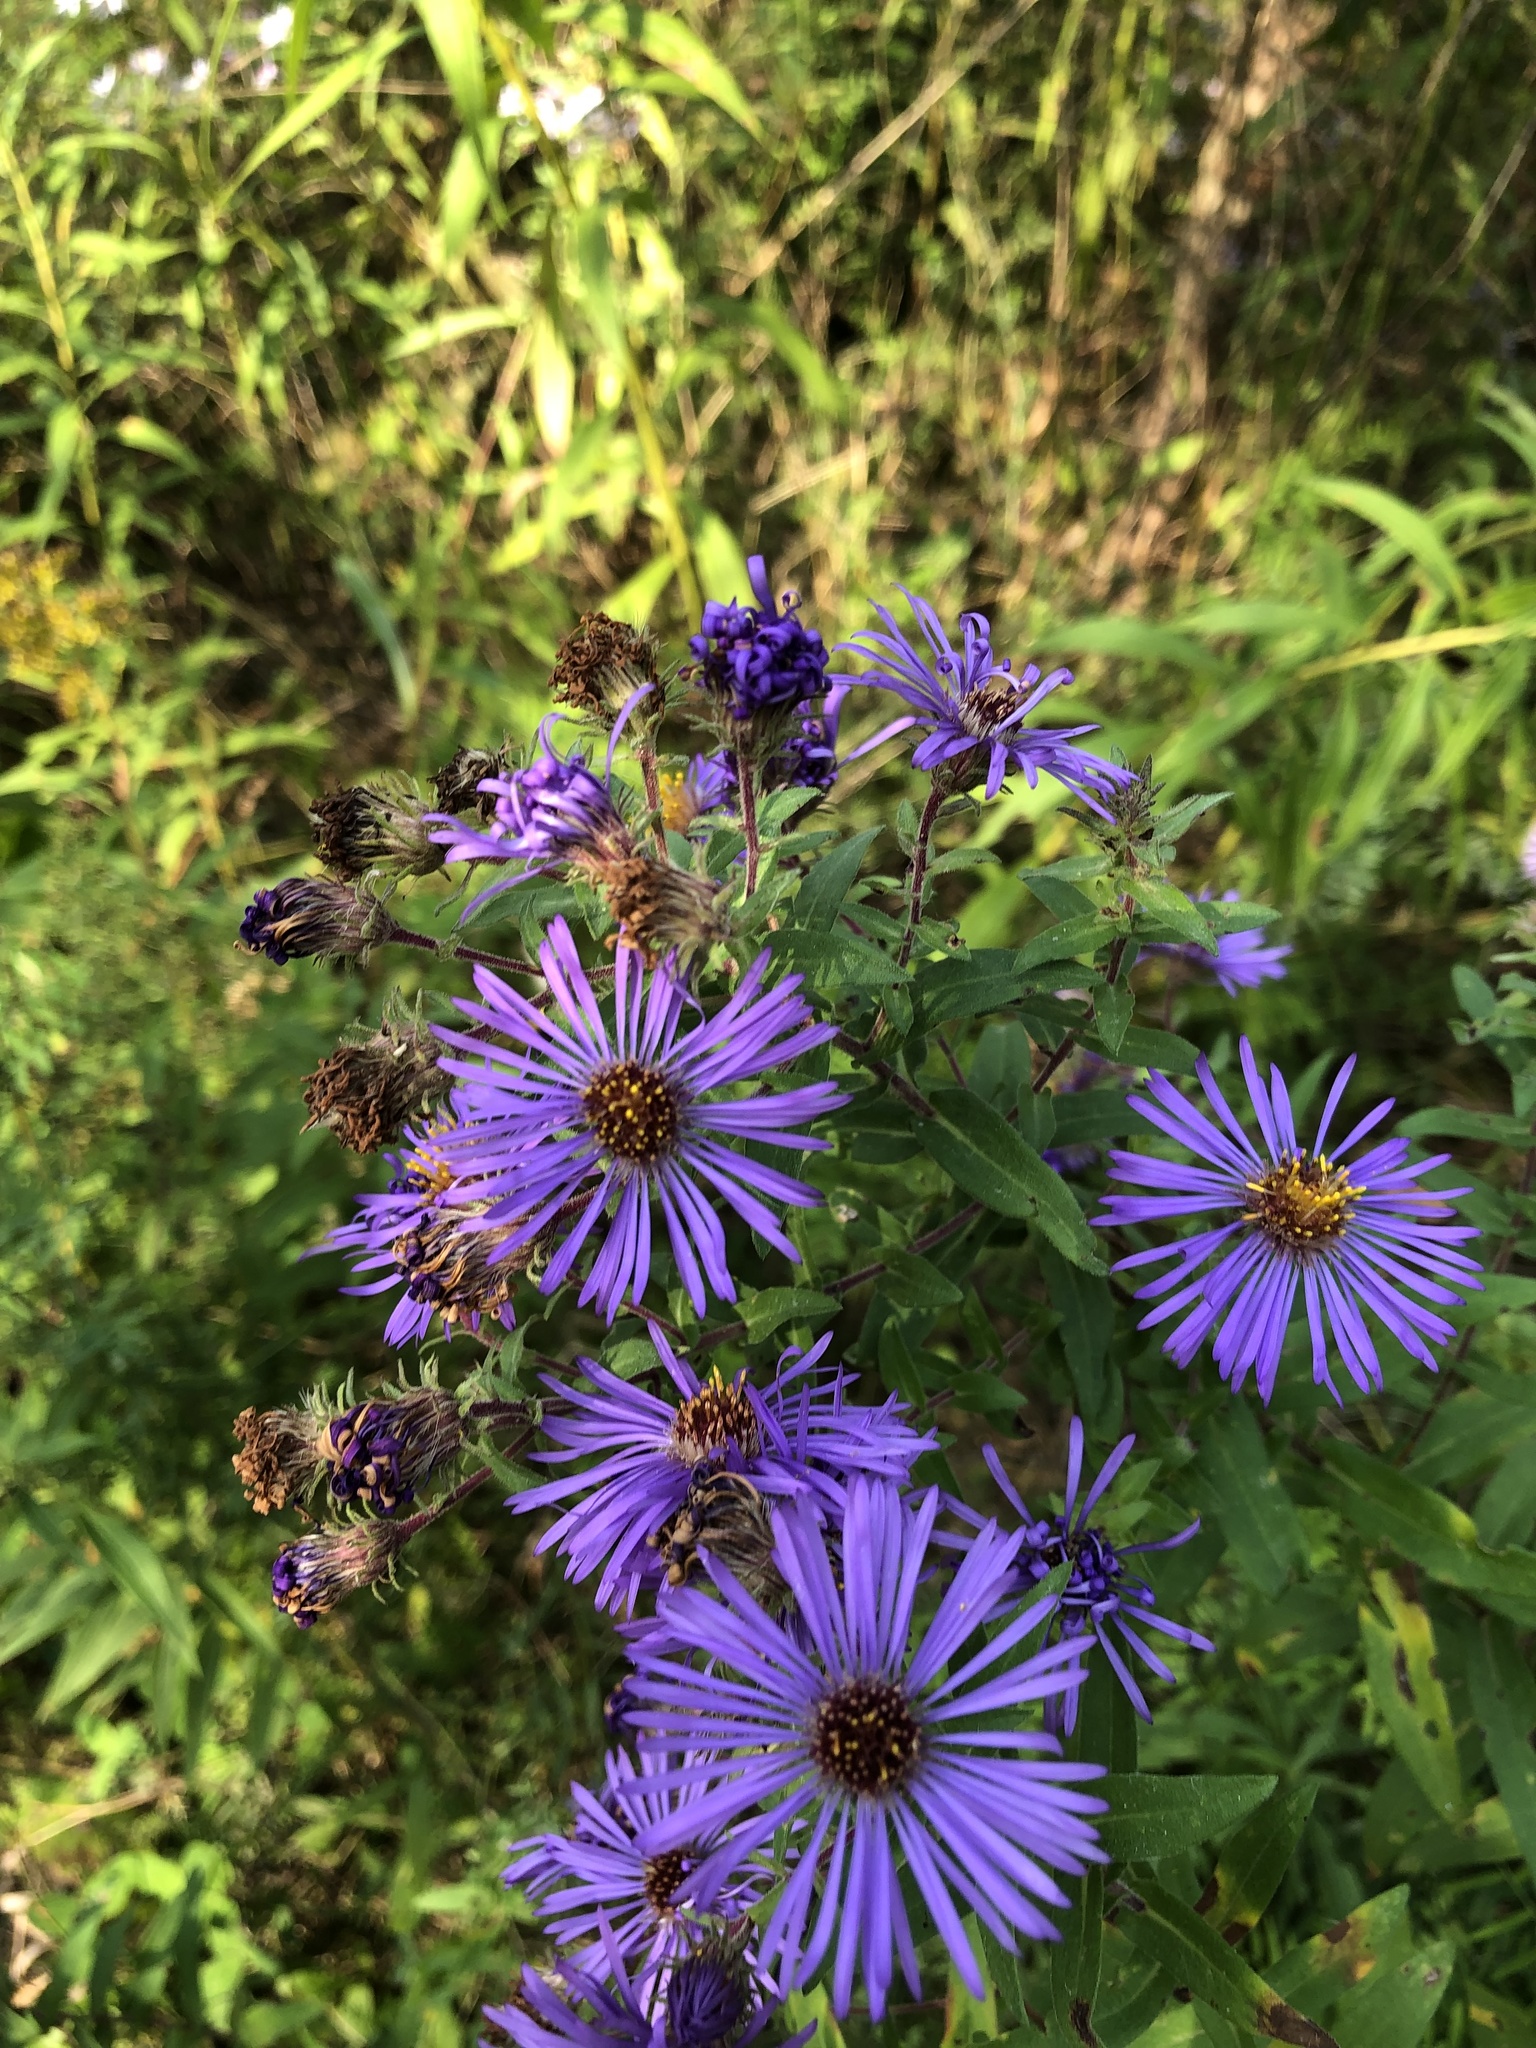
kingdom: Plantae
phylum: Tracheophyta
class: Magnoliopsida
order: Asterales
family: Asteraceae
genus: Symphyotrichum
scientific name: Symphyotrichum novae-angliae
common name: Michaelmas daisy
